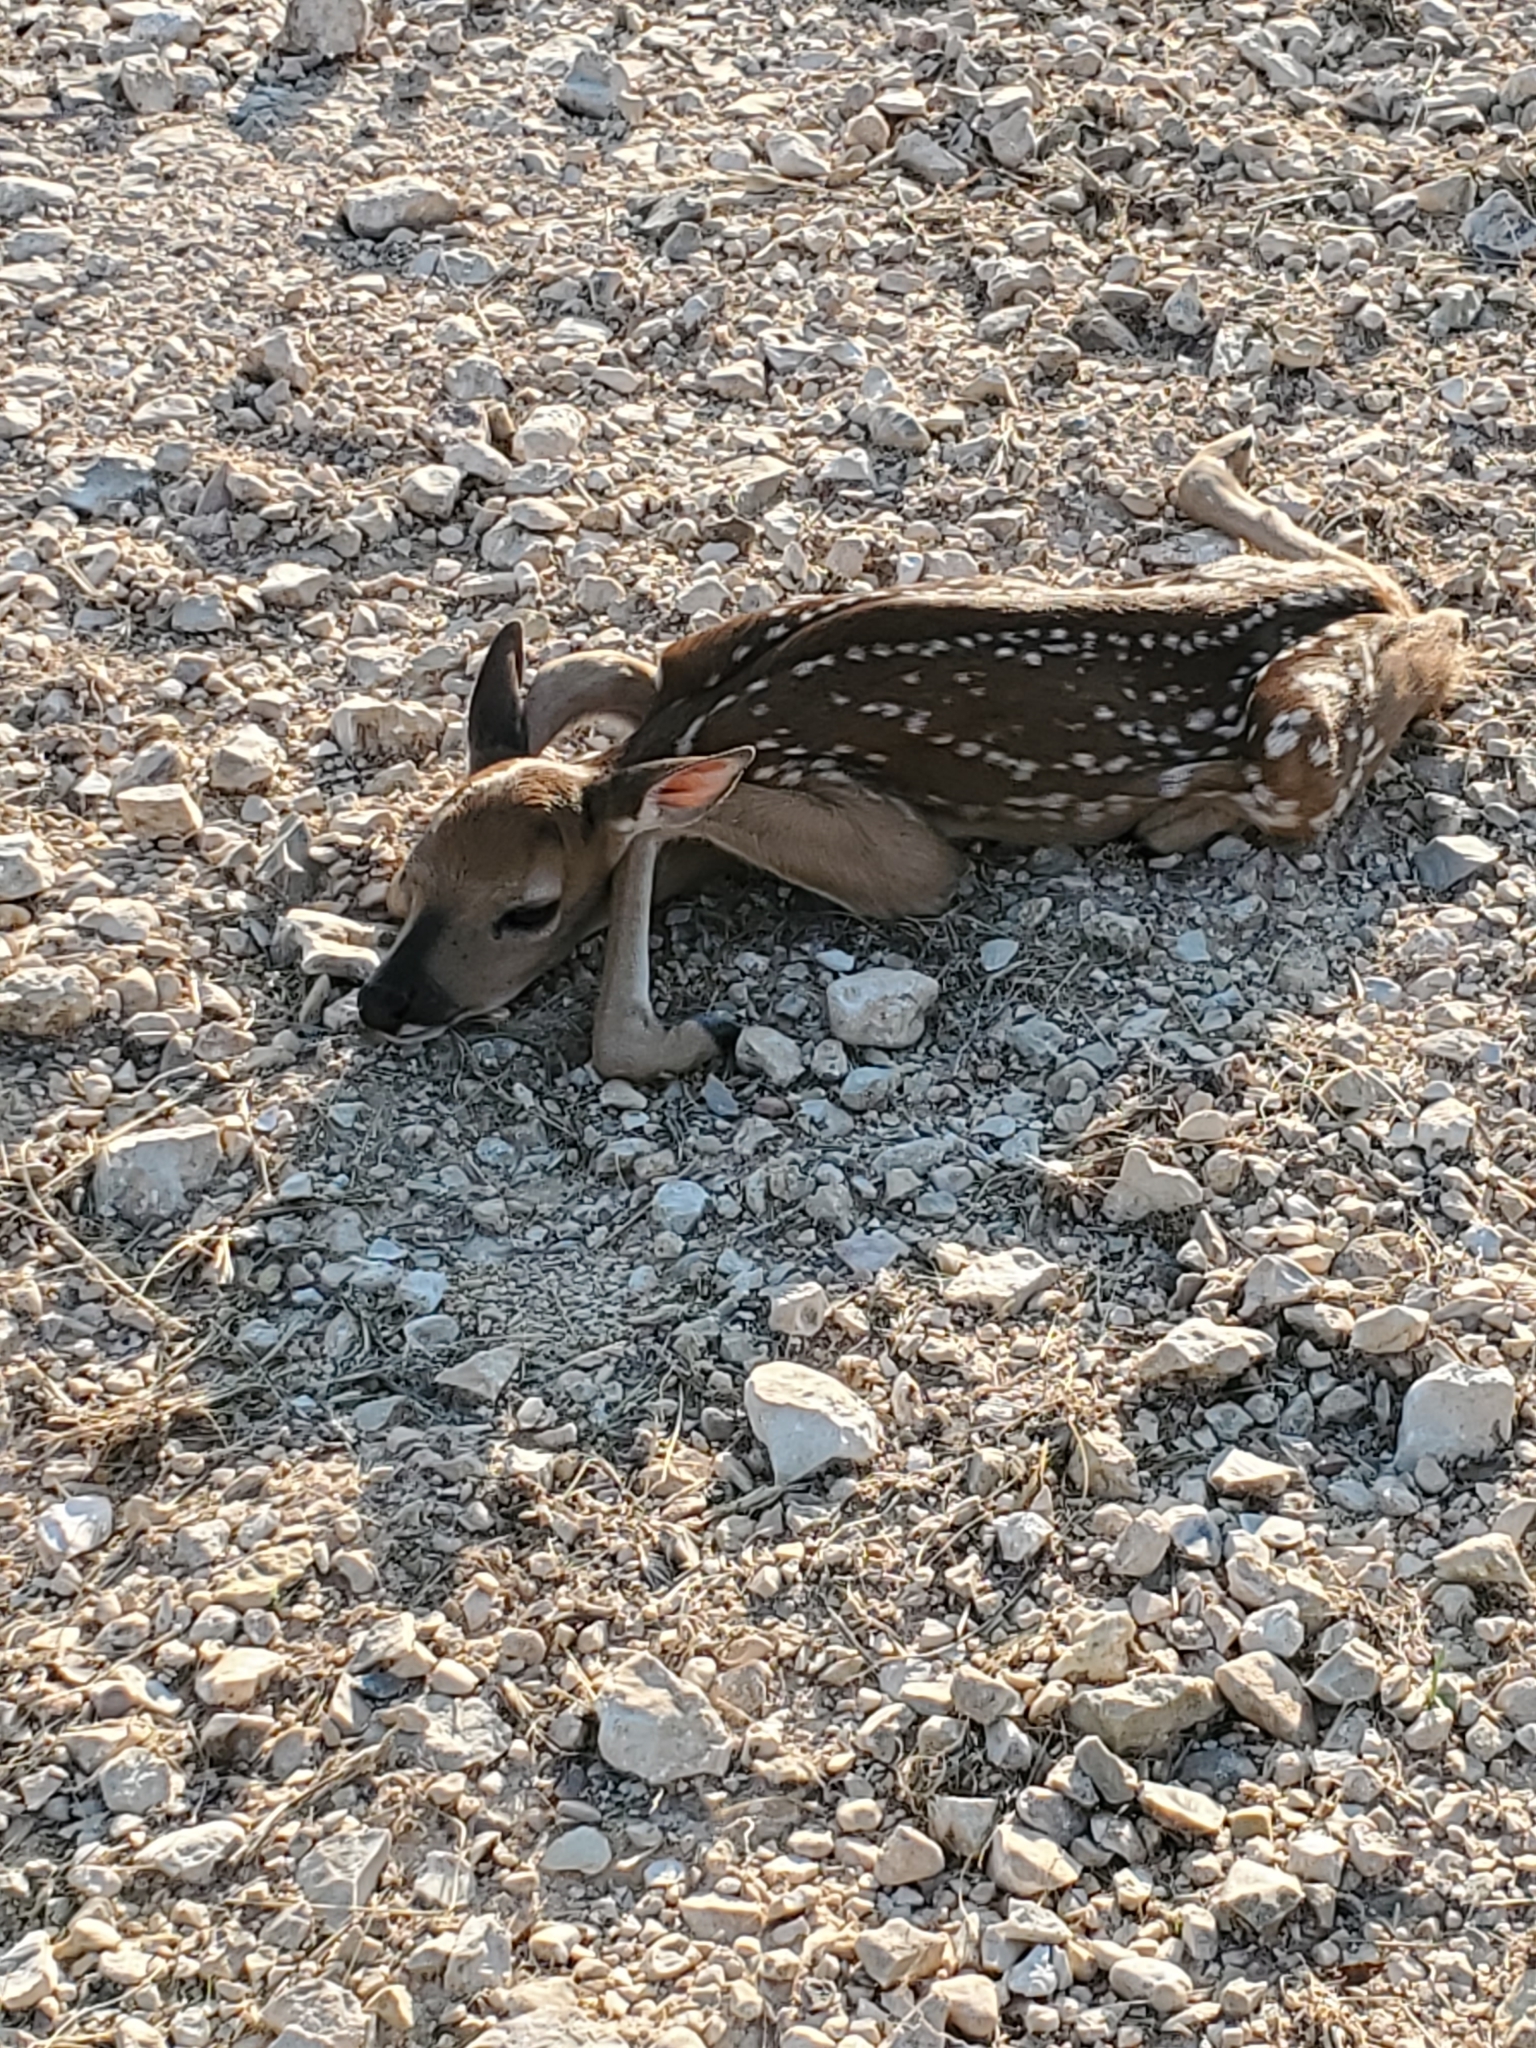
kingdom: Animalia
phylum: Chordata
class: Mammalia
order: Artiodactyla
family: Cervidae
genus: Odocoileus
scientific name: Odocoileus virginianus
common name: White-tailed deer
